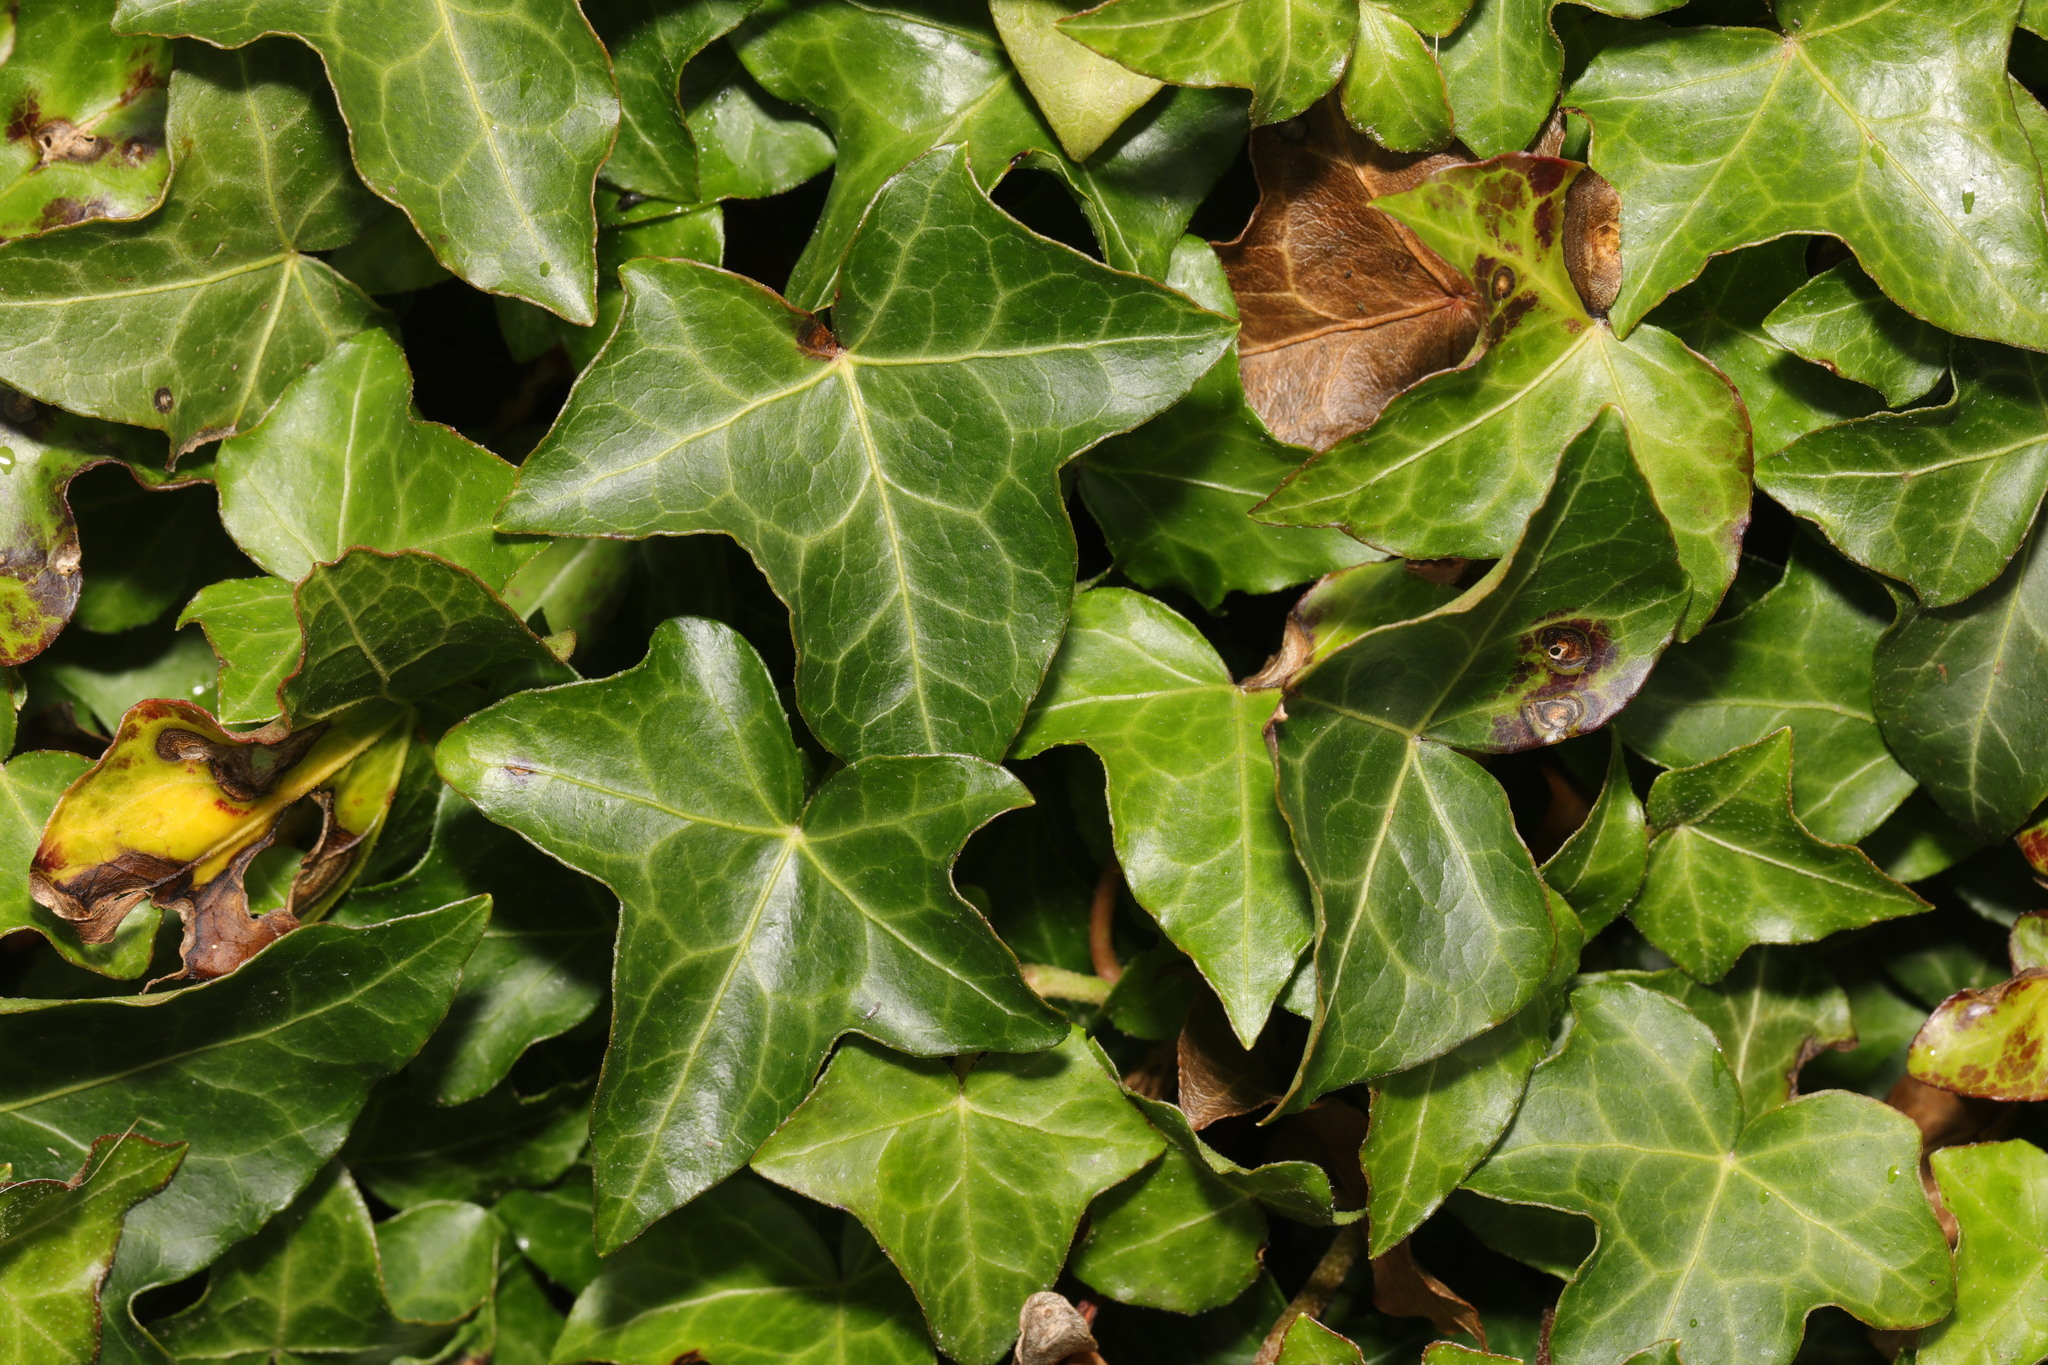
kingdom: Plantae
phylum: Tracheophyta
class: Magnoliopsida
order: Apiales
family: Araliaceae
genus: Hedera
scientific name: Hedera helix
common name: Ivy
